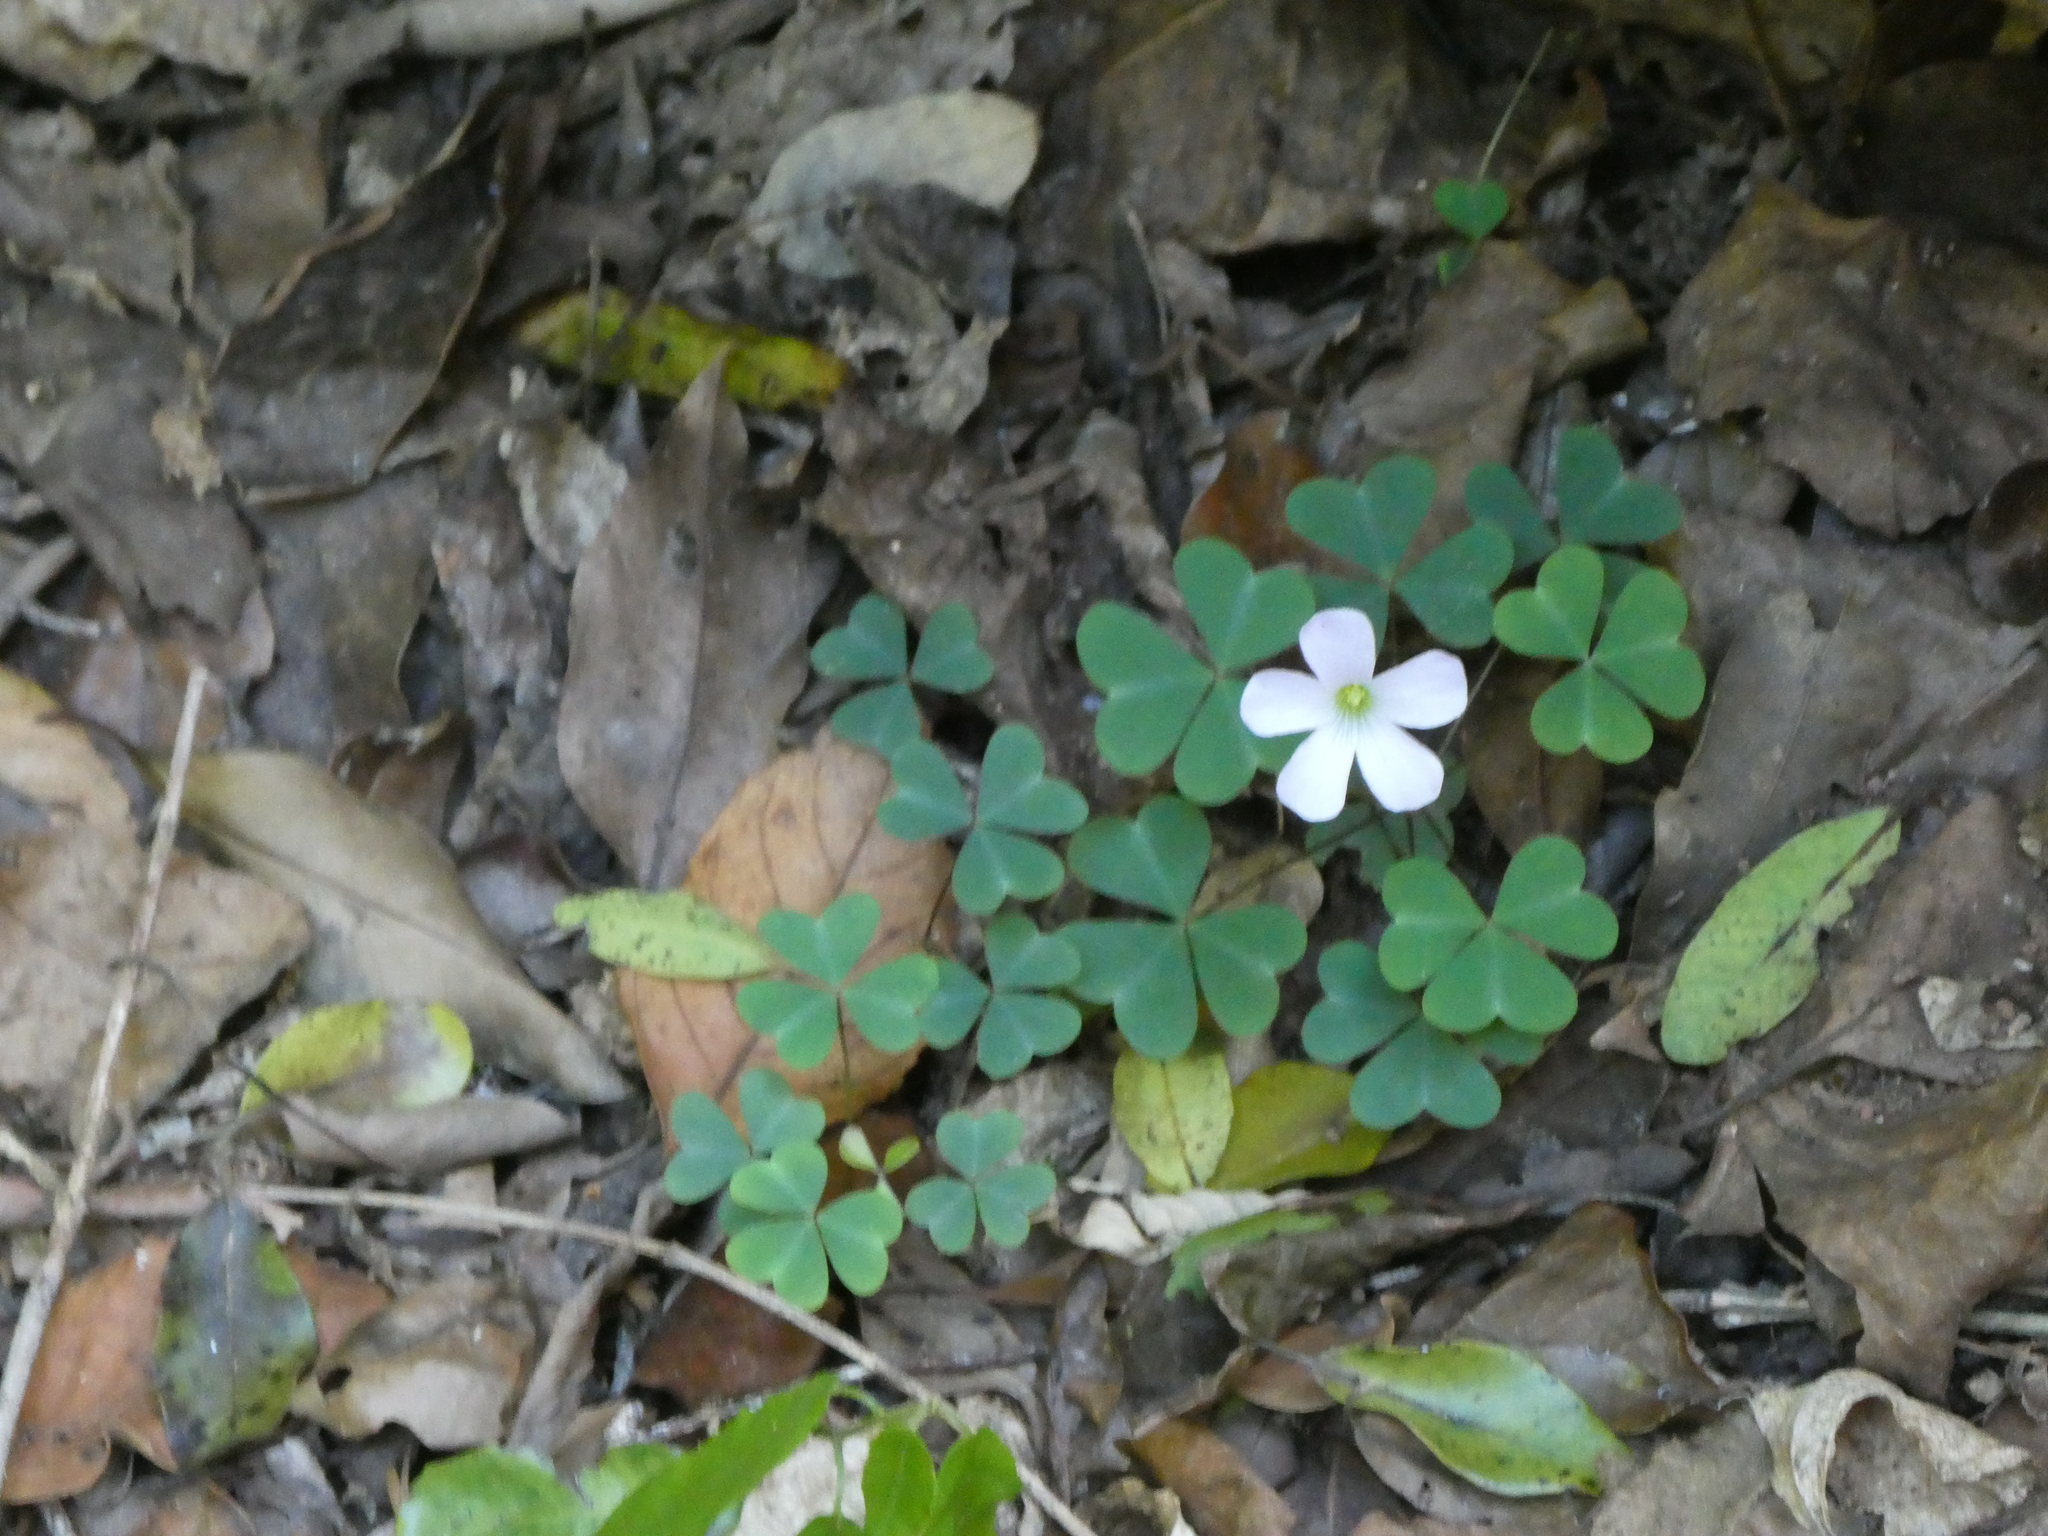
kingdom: Plantae
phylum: Tracheophyta
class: Magnoliopsida
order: Oxalidales
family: Oxalidaceae
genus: Oxalis
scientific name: Oxalis incarnata
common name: Pale pink-sorrel
